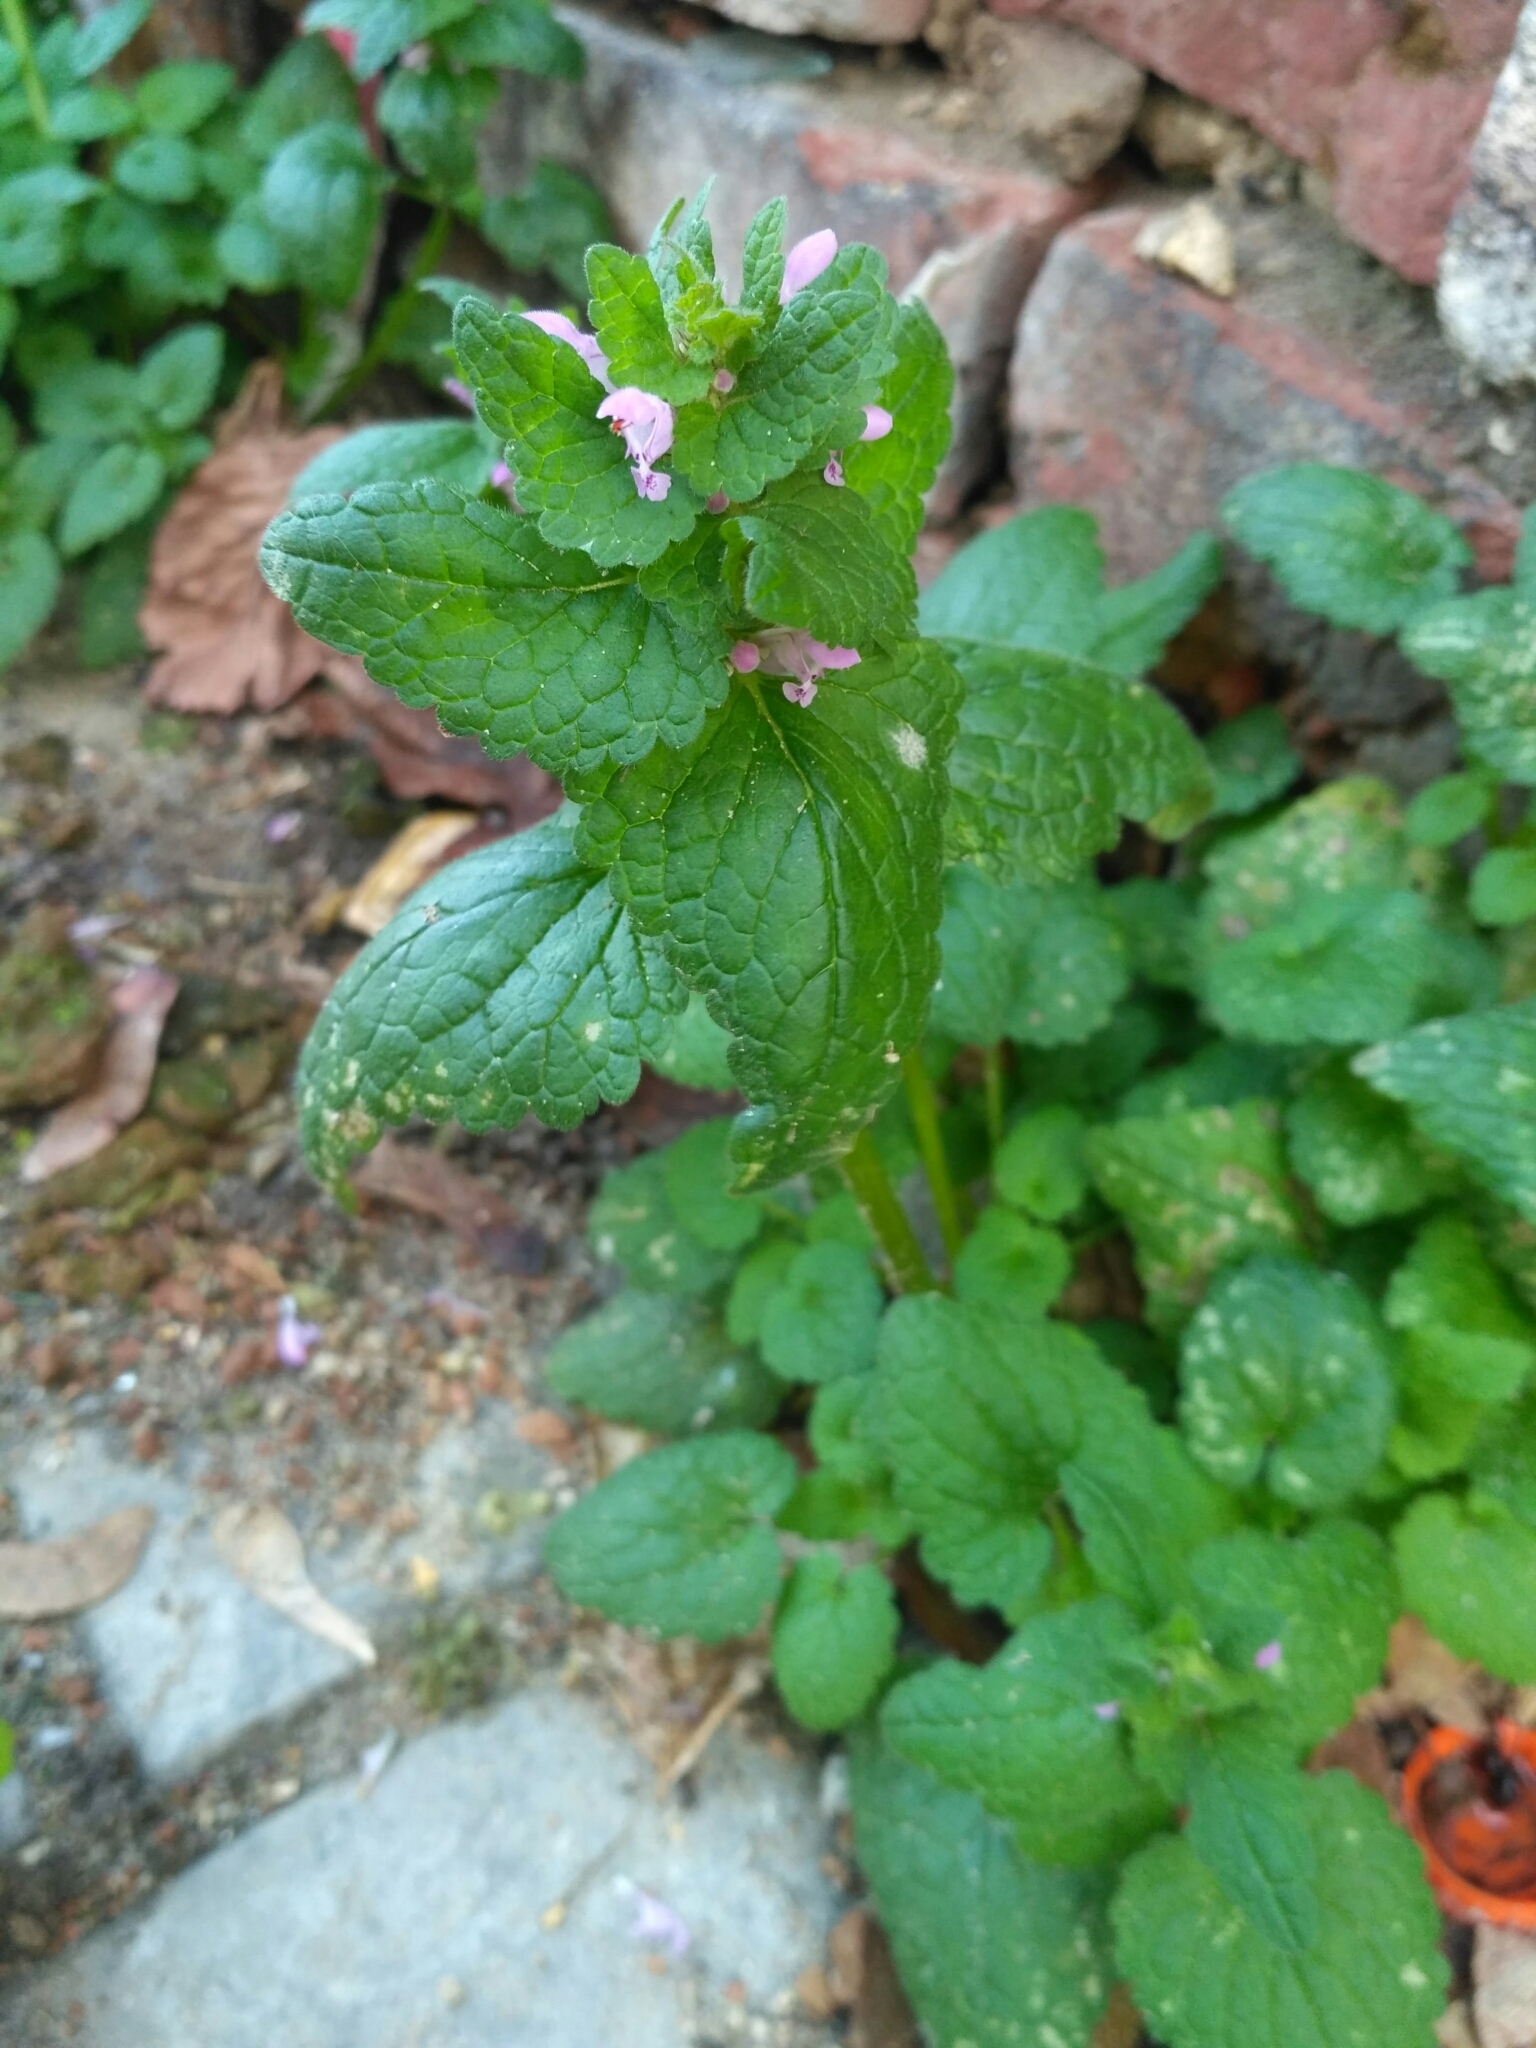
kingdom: Plantae
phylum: Tracheophyta
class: Magnoliopsida
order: Lamiales
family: Lamiaceae
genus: Lamium
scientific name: Lamium purpureum
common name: Red dead-nettle
